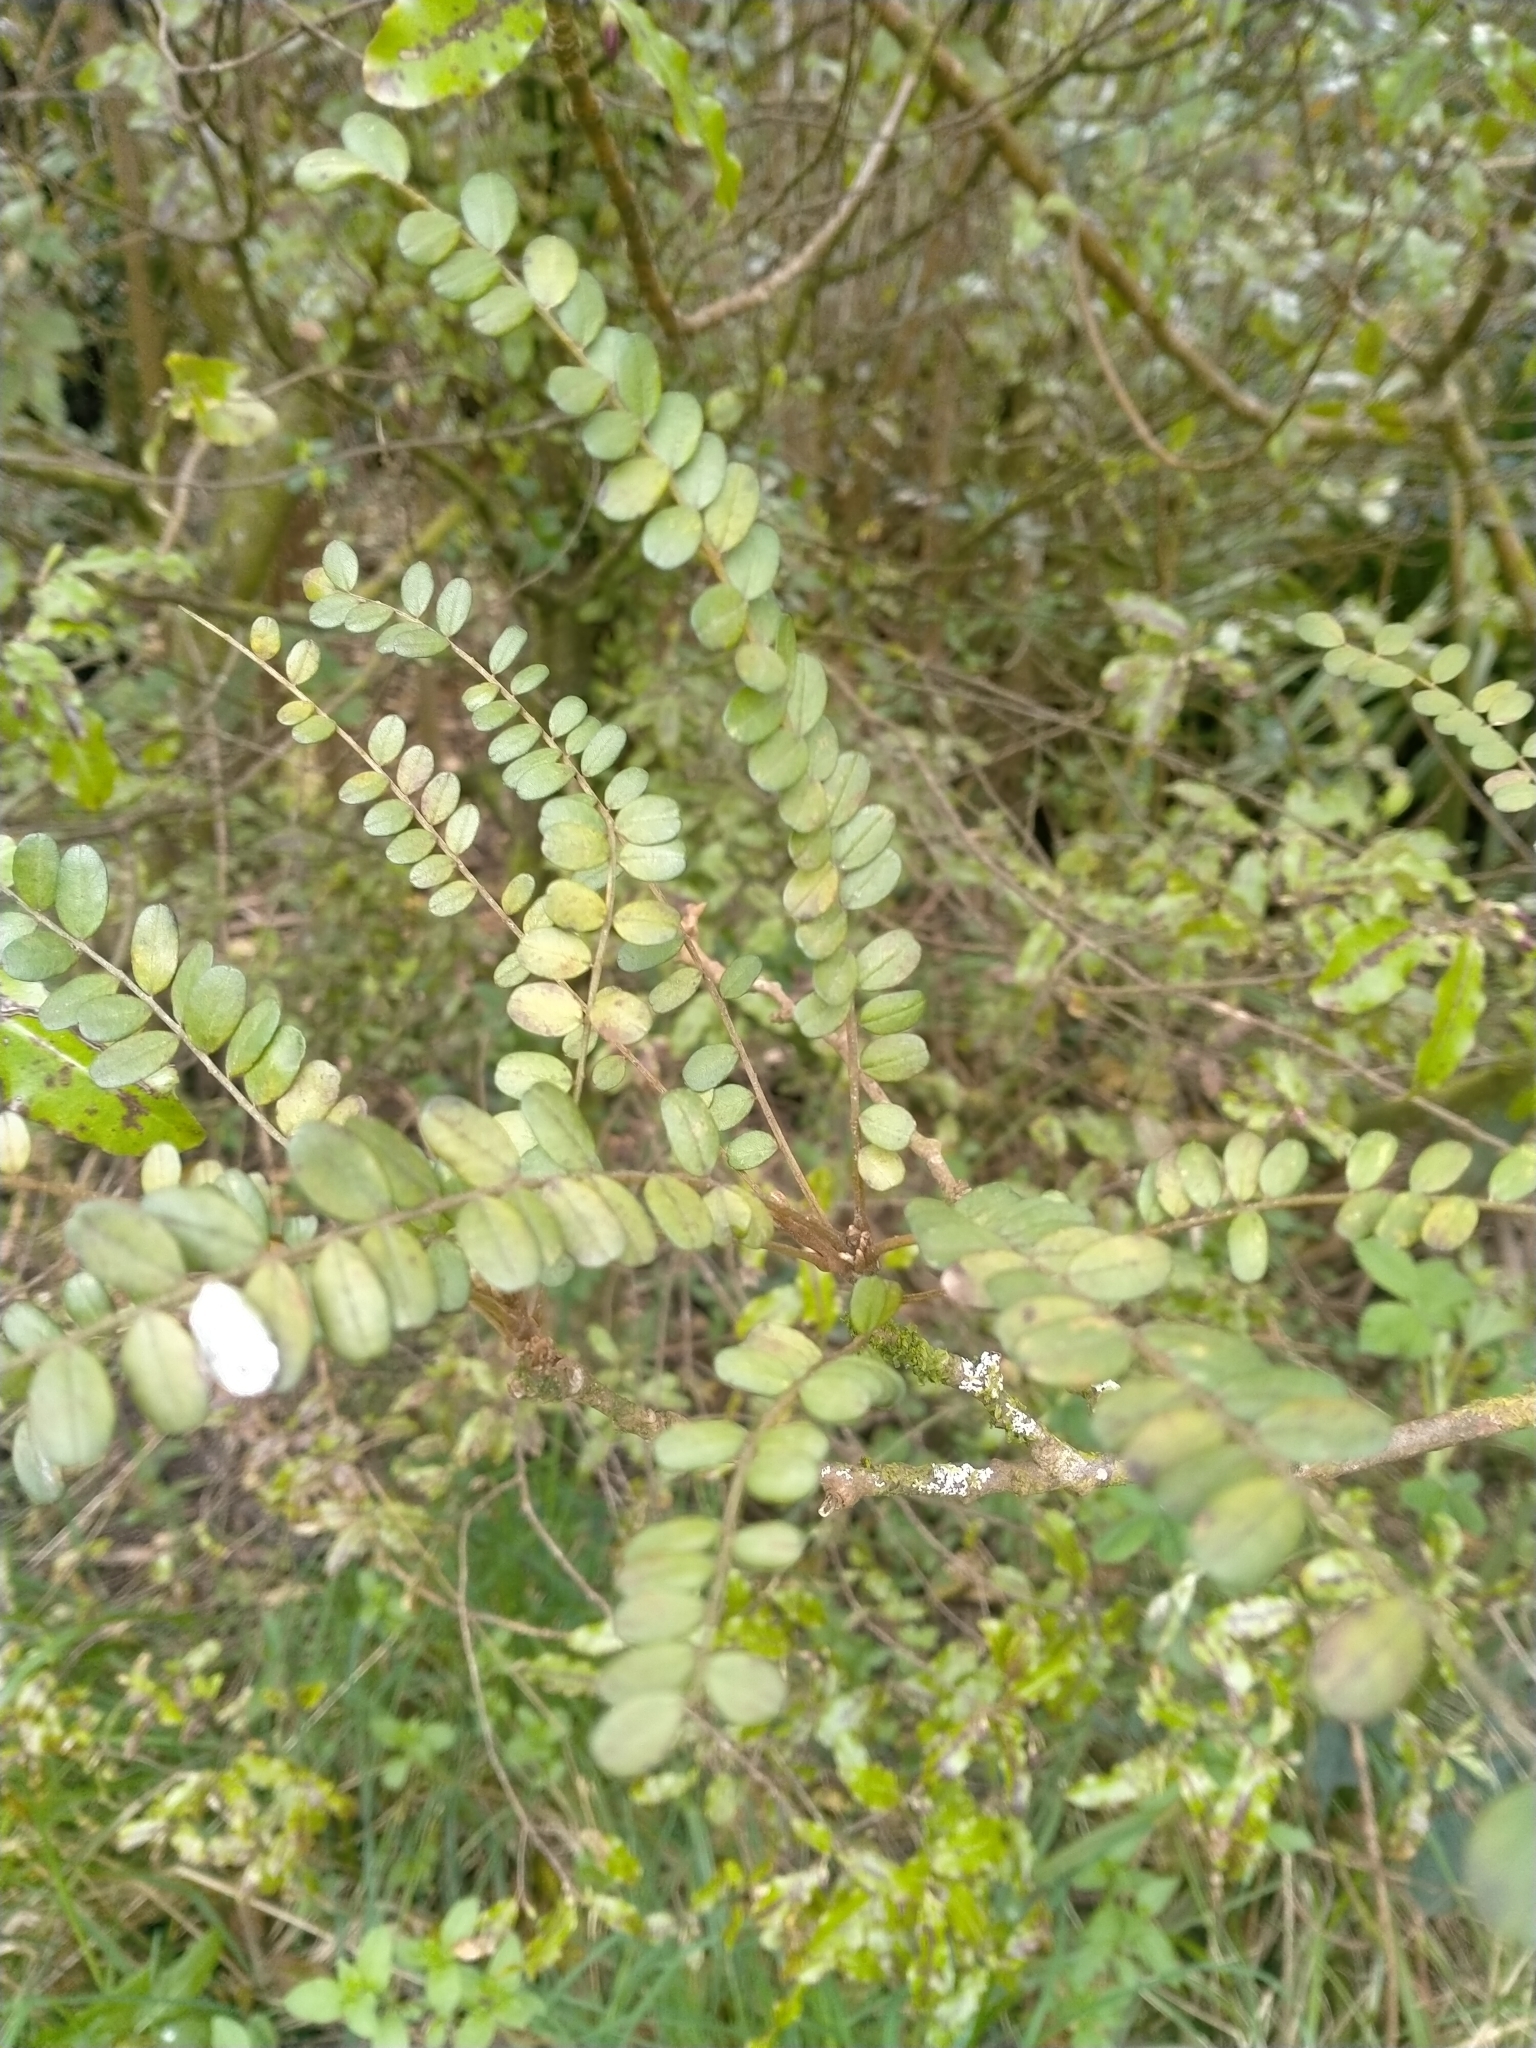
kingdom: Plantae
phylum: Tracheophyta
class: Magnoliopsida
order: Fabales
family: Fabaceae
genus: Sophora
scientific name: Sophora microphylla
